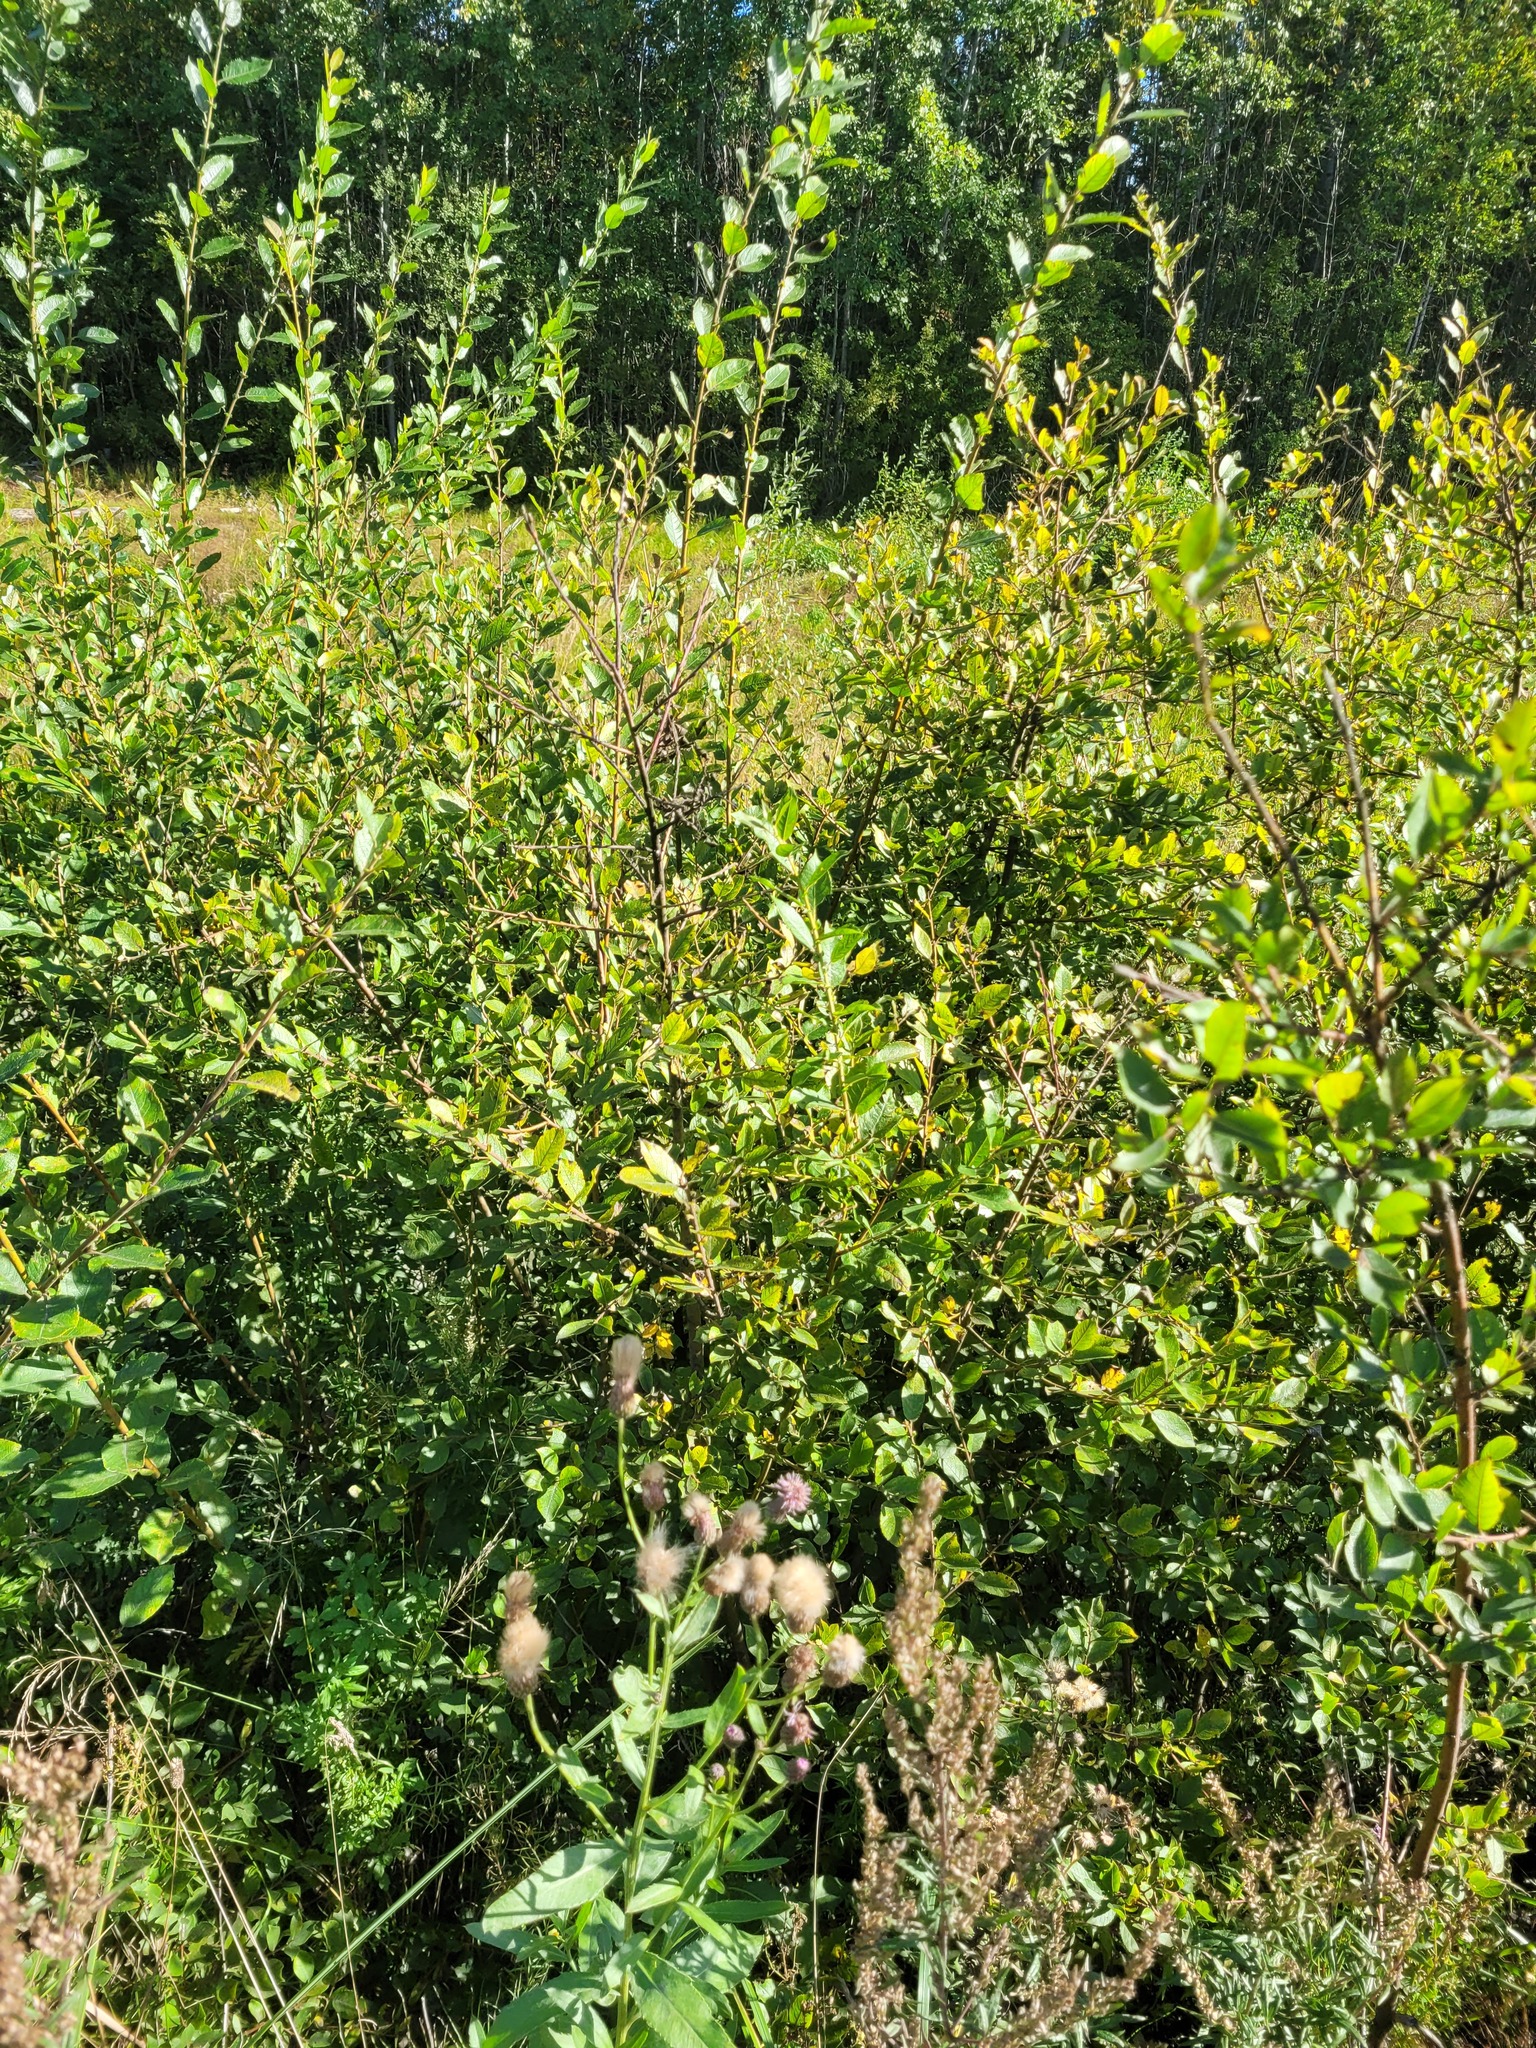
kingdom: Plantae
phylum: Tracheophyta
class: Magnoliopsida
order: Malpighiales
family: Salicaceae
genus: Salix
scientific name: Salix myrsinifolia
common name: Dark-leaved willow
